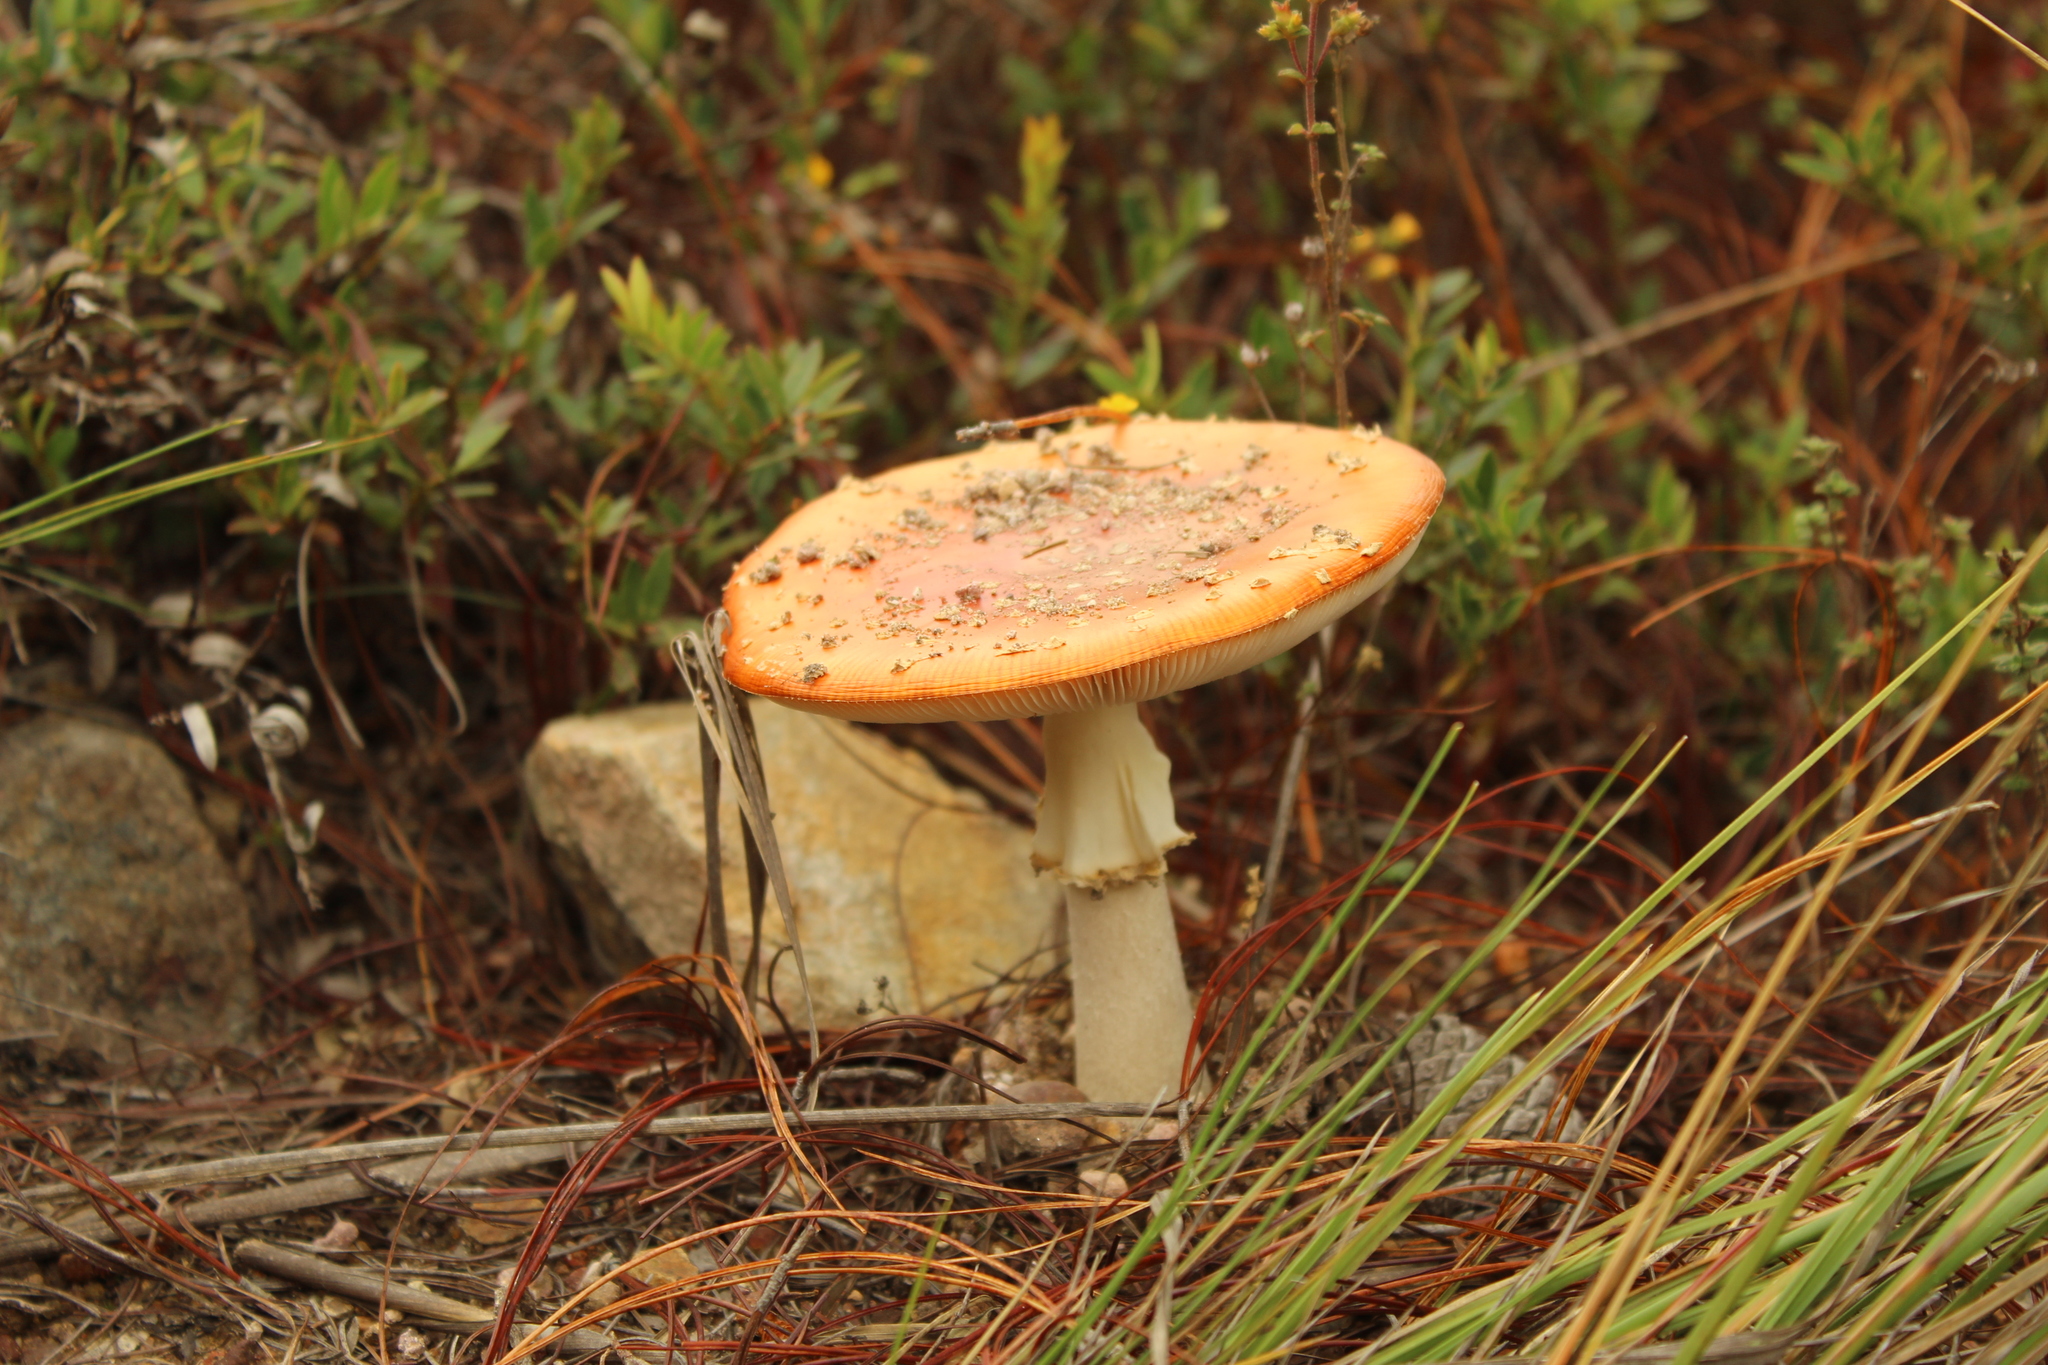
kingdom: Fungi
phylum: Basidiomycota
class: Agaricomycetes
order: Agaricales
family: Amanitaceae
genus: Amanita
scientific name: Amanita muscaria
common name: Fly agaric
